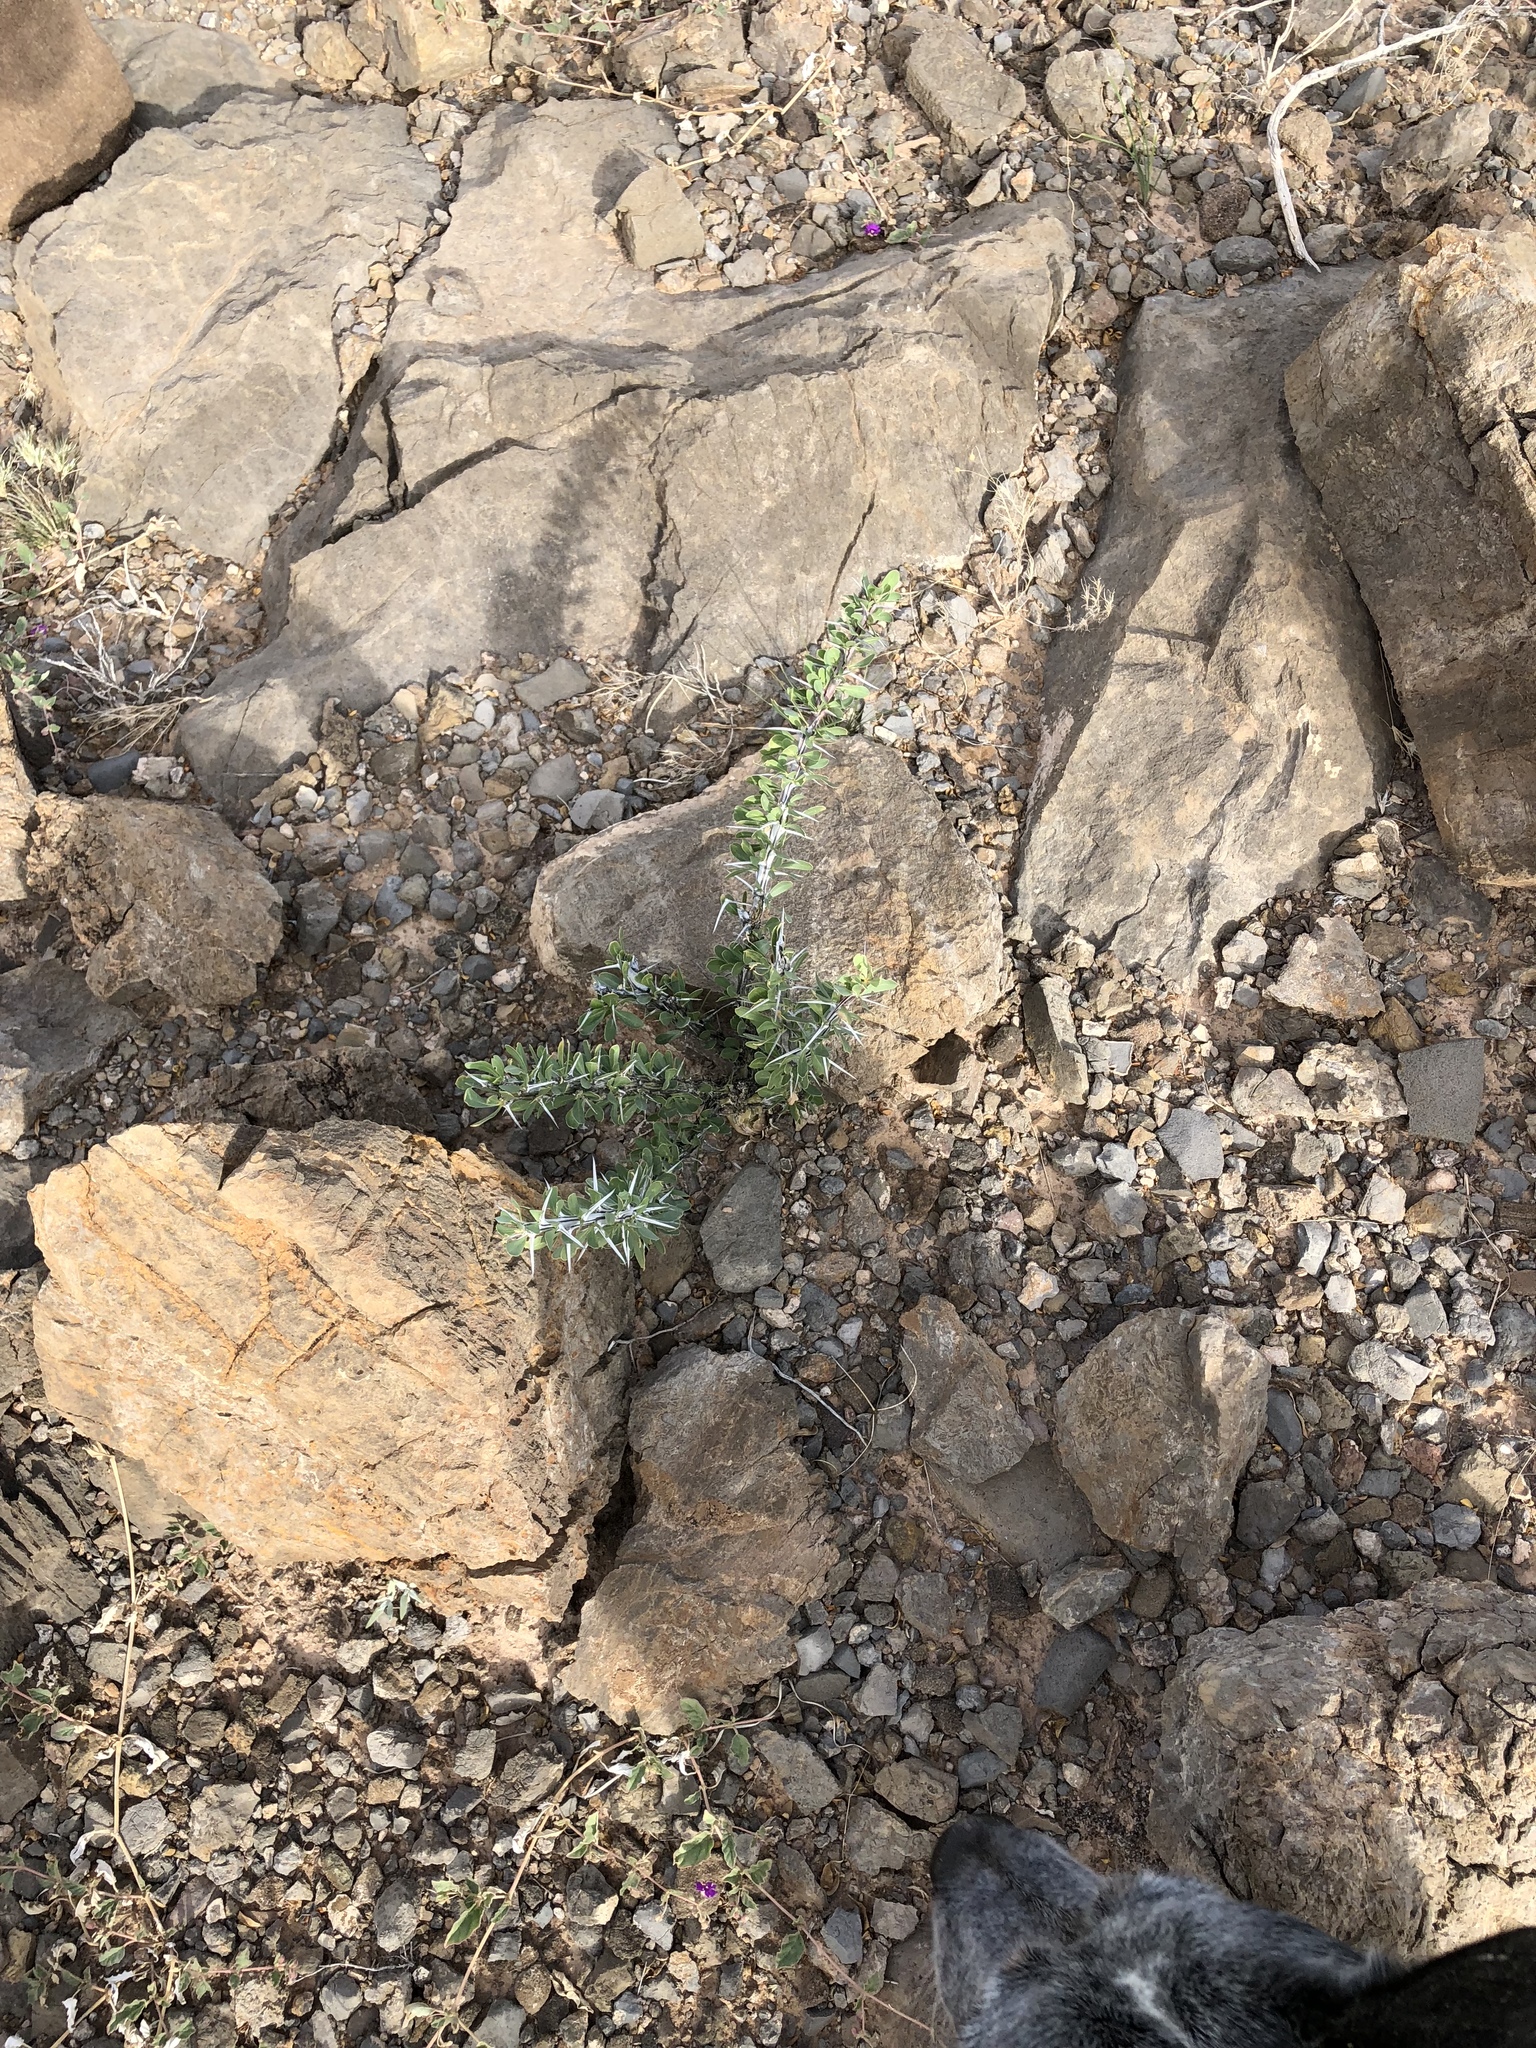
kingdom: Plantae
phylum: Tracheophyta
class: Magnoliopsida
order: Ericales
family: Fouquieriaceae
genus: Fouquieria
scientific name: Fouquieria splendens
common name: Vine-cactus
